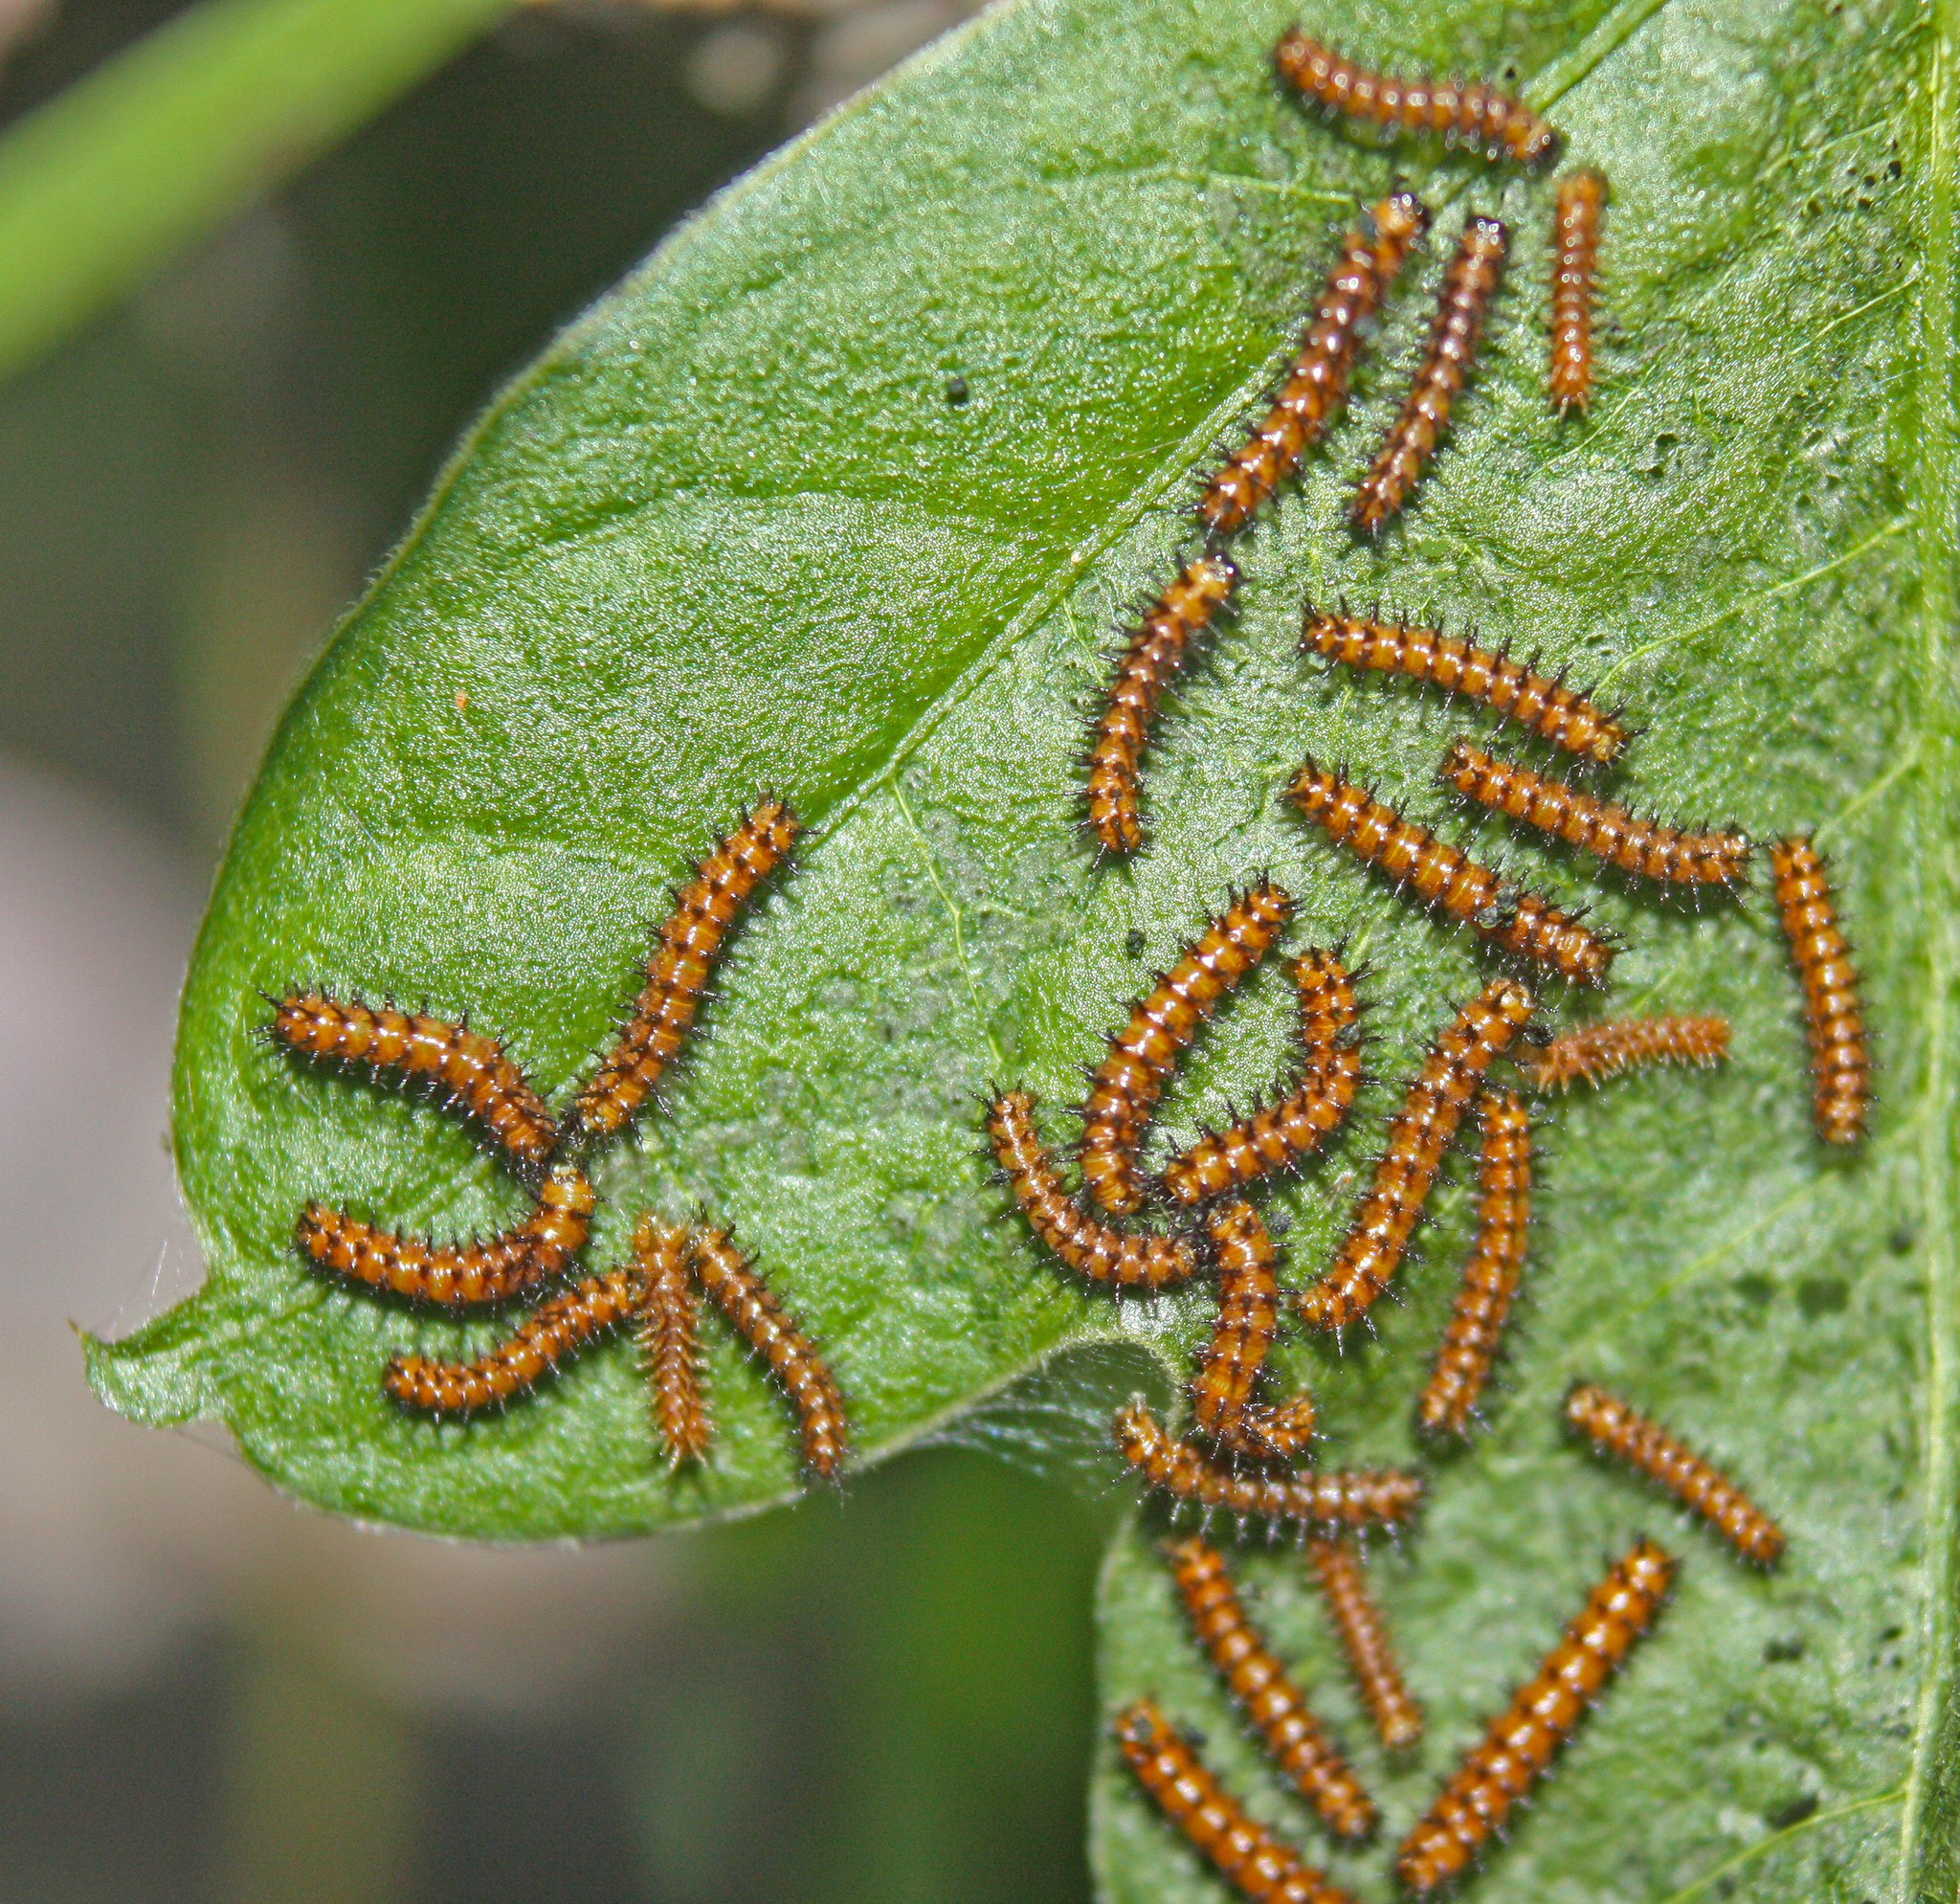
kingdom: Animalia
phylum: Arthropoda
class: Insecta
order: Lepidoptera
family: Nymphalidae
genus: Acraea
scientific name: Acraea andromacha
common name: Glasswing
